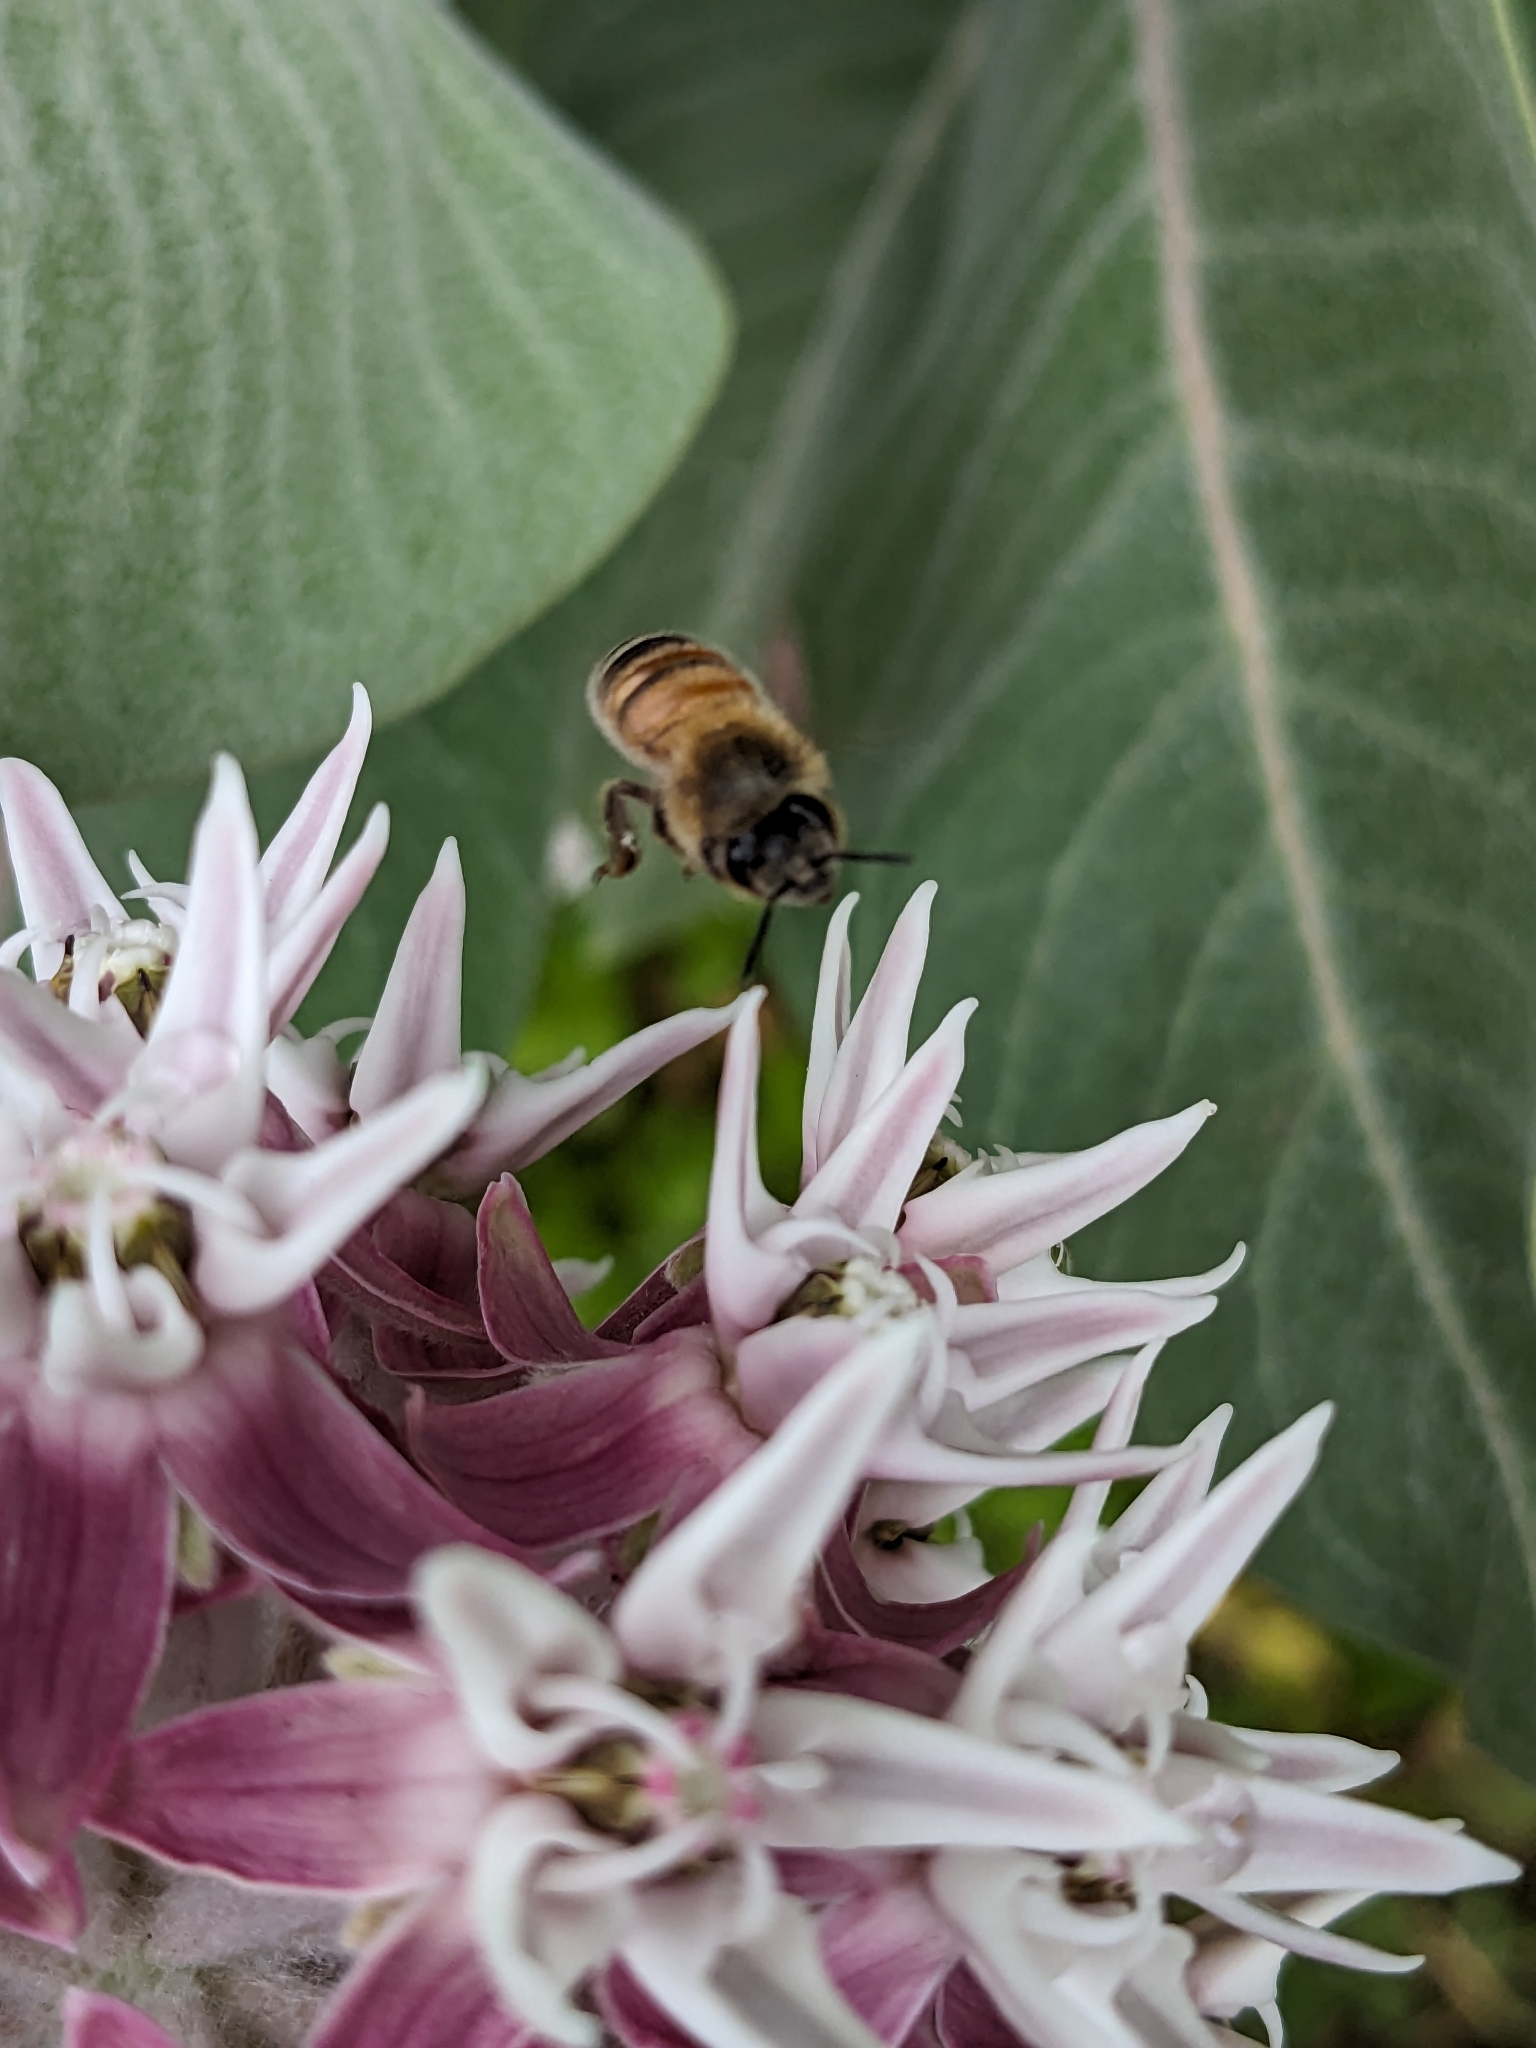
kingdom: Animalia
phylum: Arthropoda
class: Insecta
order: Hymenoptera
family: Apidae
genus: Apis
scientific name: Apis mellifera
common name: Honey bee
